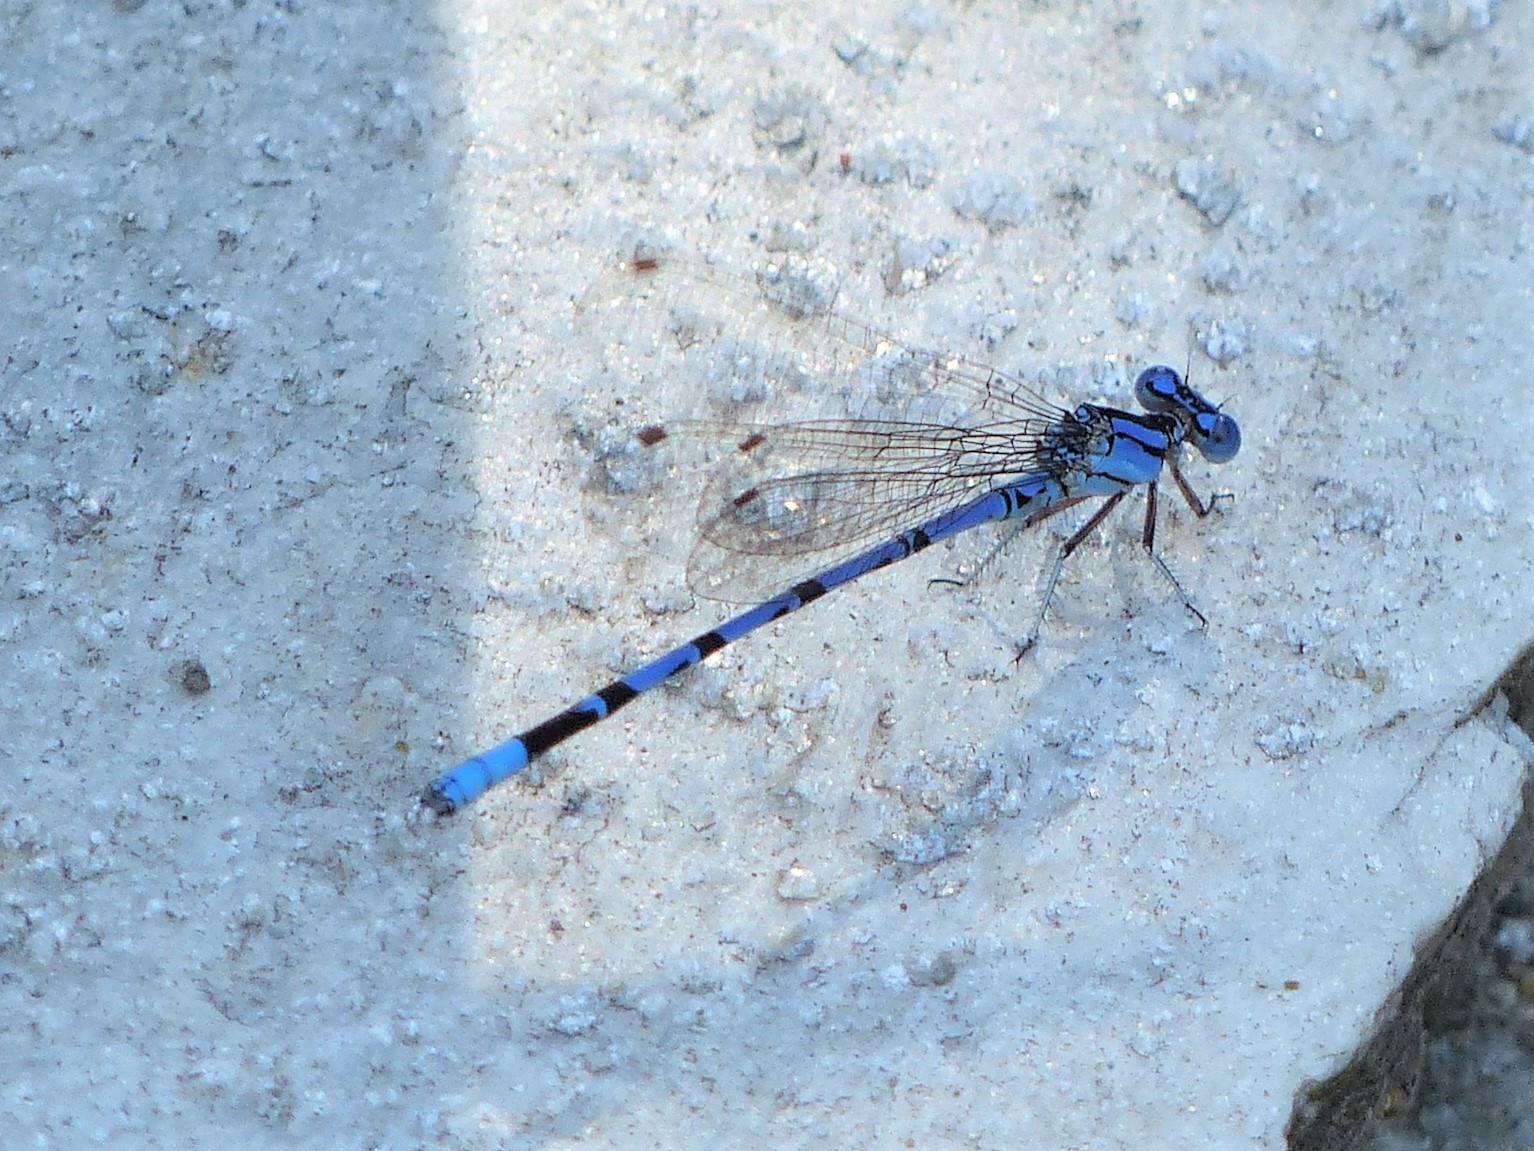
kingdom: Animalia
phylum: Arthropoda
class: Insecta
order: Odonata
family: Coenagrionidae
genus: Argia
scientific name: Argia funebris
